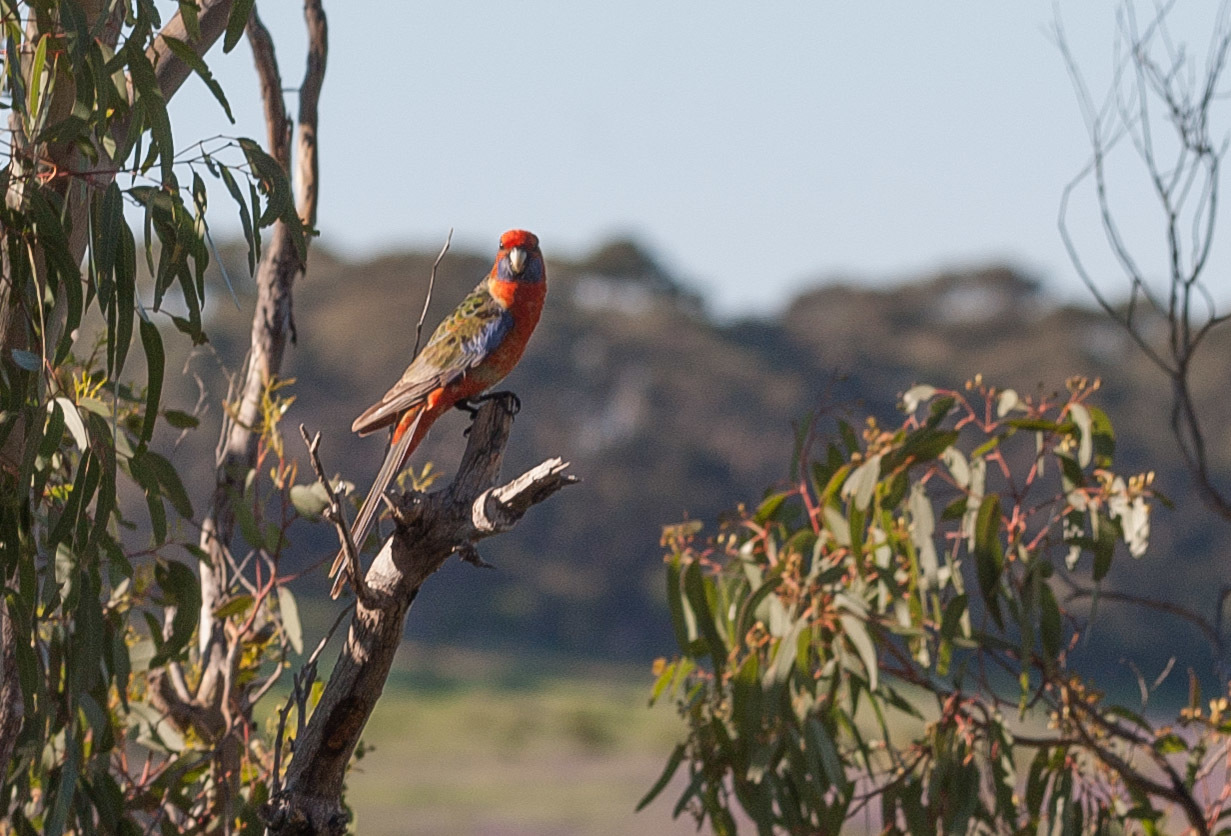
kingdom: Animalia
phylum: Chordata
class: Aves
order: Psittaciformes
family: Psittacidae
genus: Platycercus
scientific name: Platycercus elegans
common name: Crimson rosella
